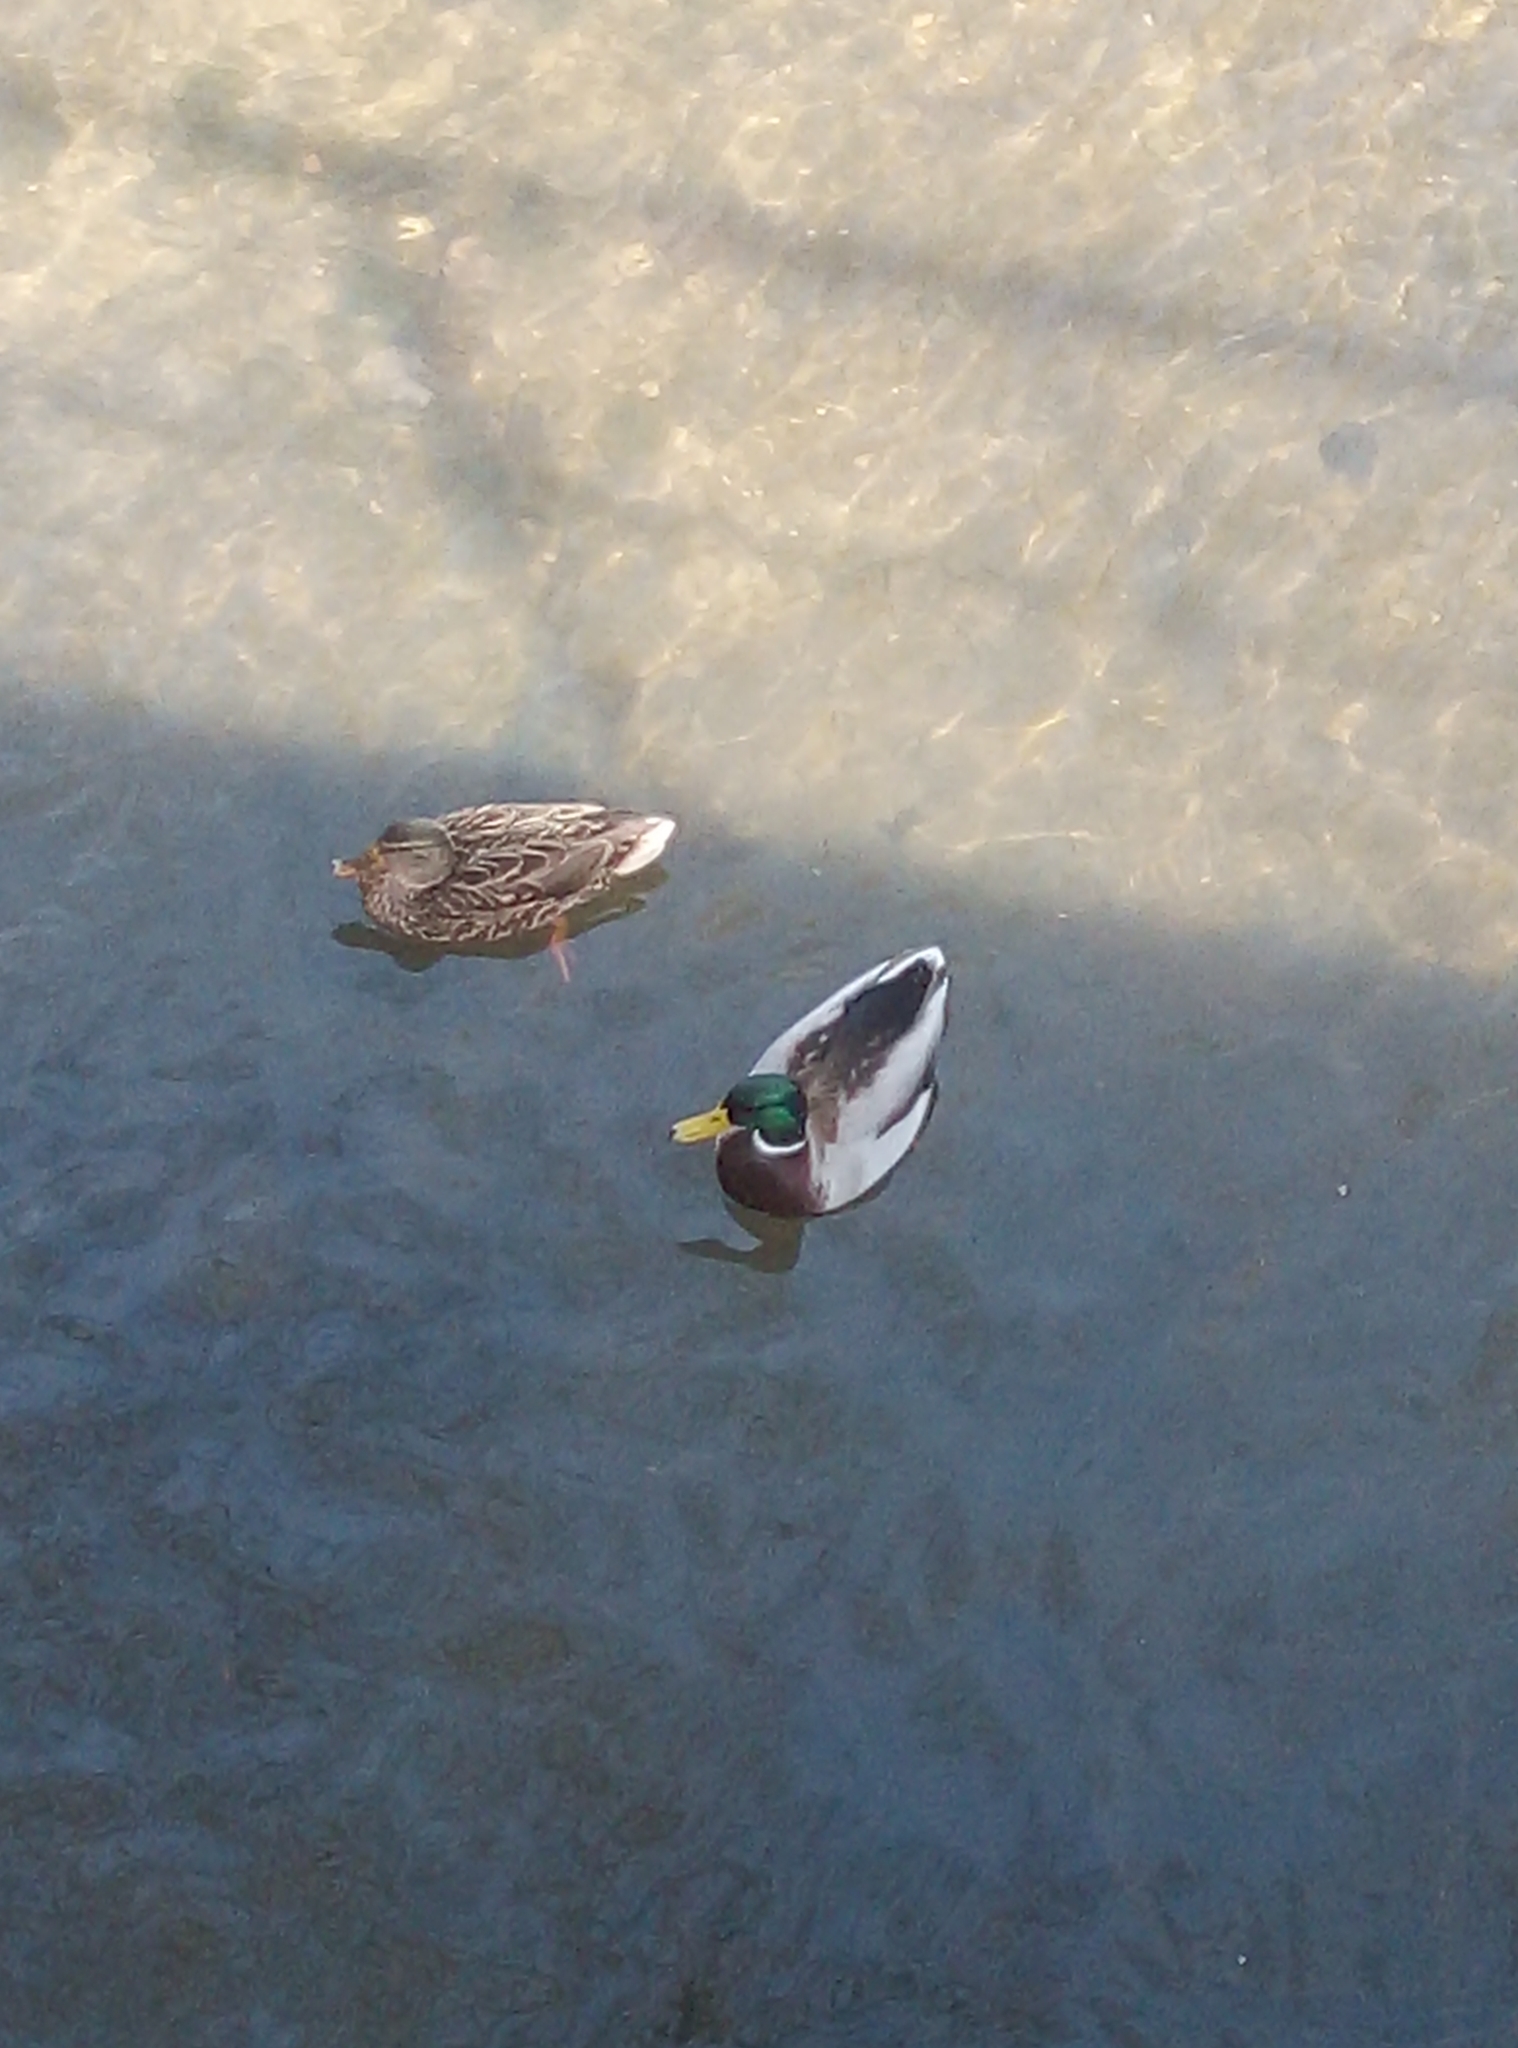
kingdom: Animalia
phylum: Chordata
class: Aves
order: Anseriformes
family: Anatidae
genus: Anas
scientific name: Anas platyrhynchos
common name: Mallard
